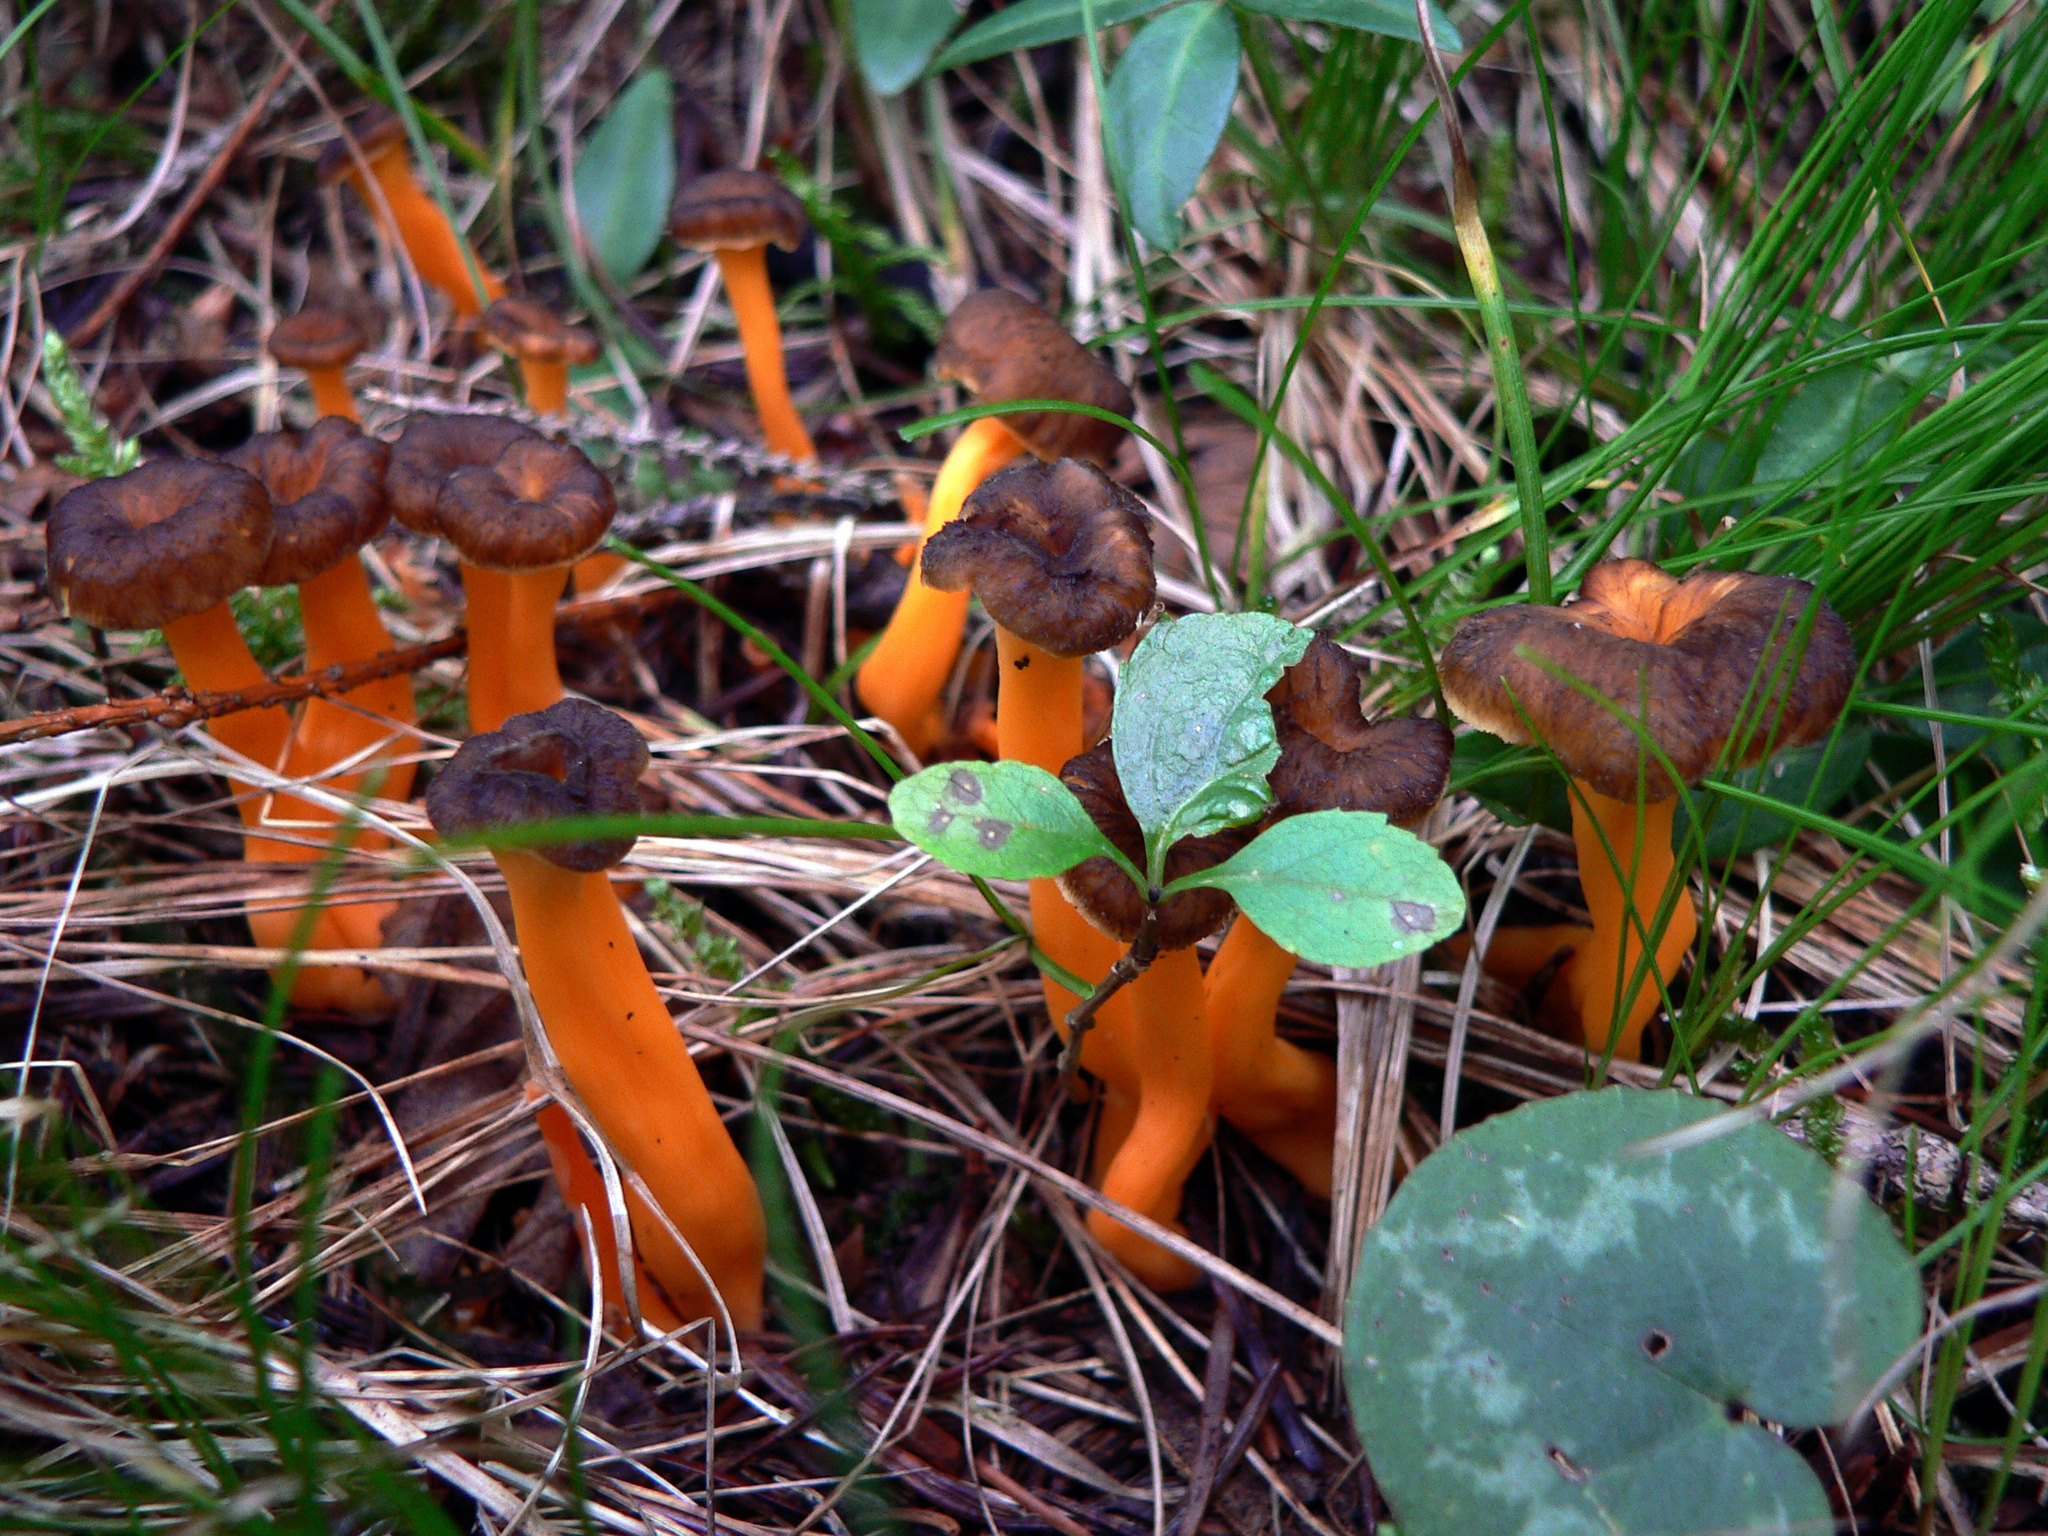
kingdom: Fungi
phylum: Basidiomycota
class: Agaricomycetes
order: Cantharellales
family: Hydnaceae
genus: Craterellus
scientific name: Craterellus lutescens
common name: Golden chanterelle
